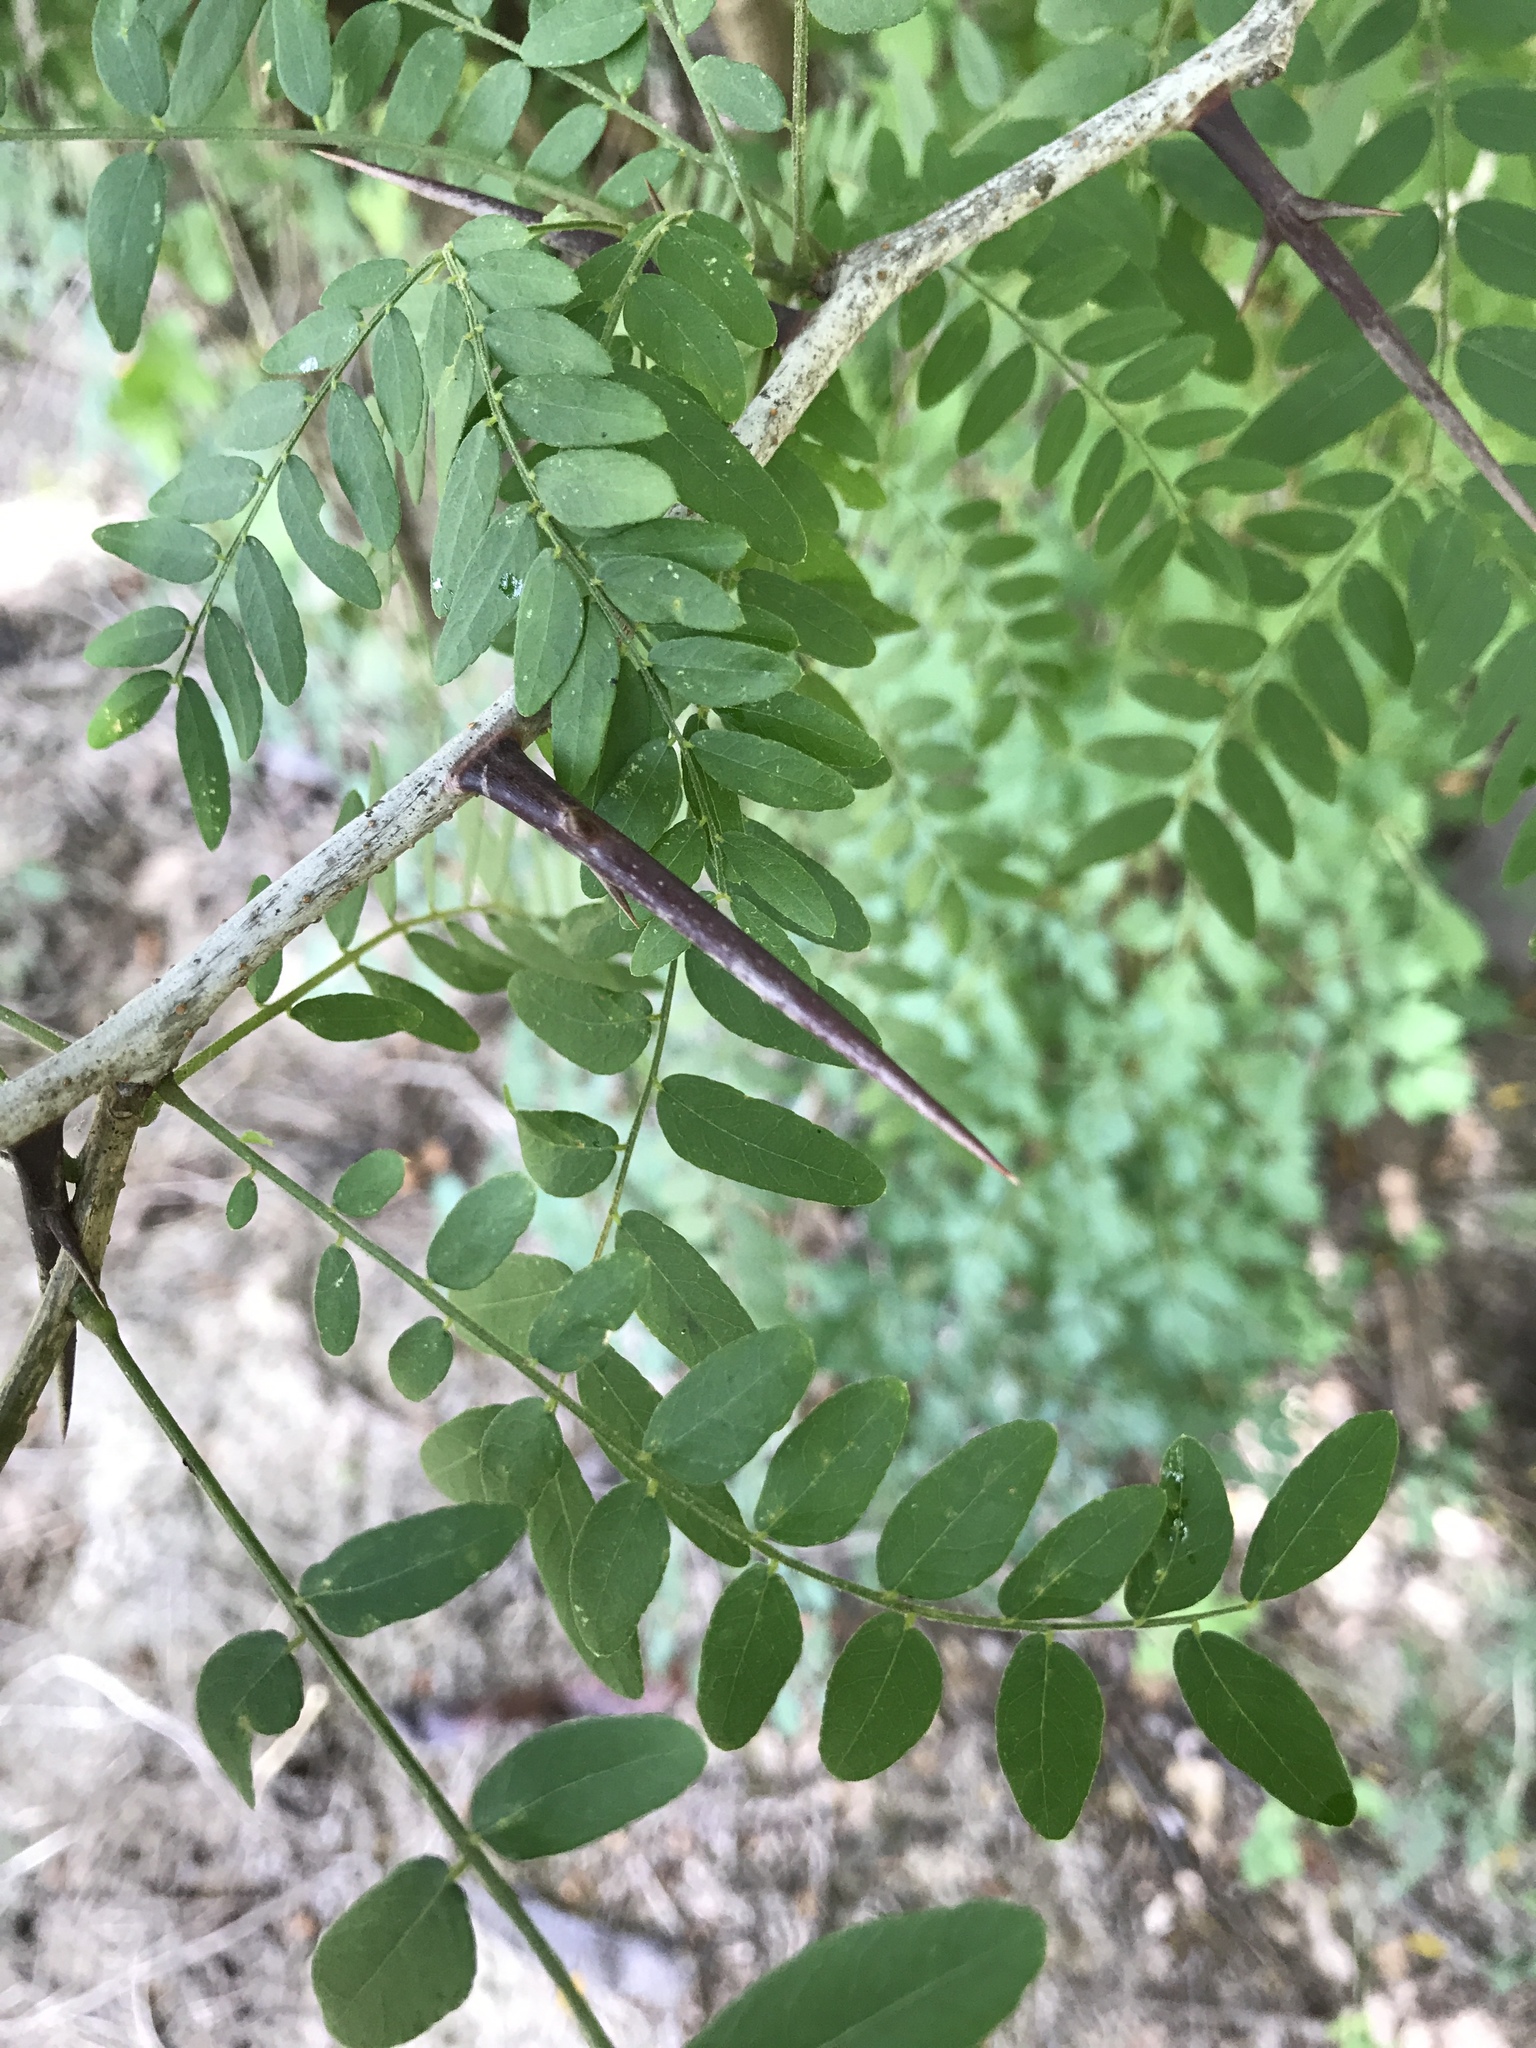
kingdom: Plantae
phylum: Tracheophyta
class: Magnoliopsida
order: Fabales
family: Fabaceae
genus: Gleditsia
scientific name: Gleditsia triacanthos
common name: Common honeylocust
